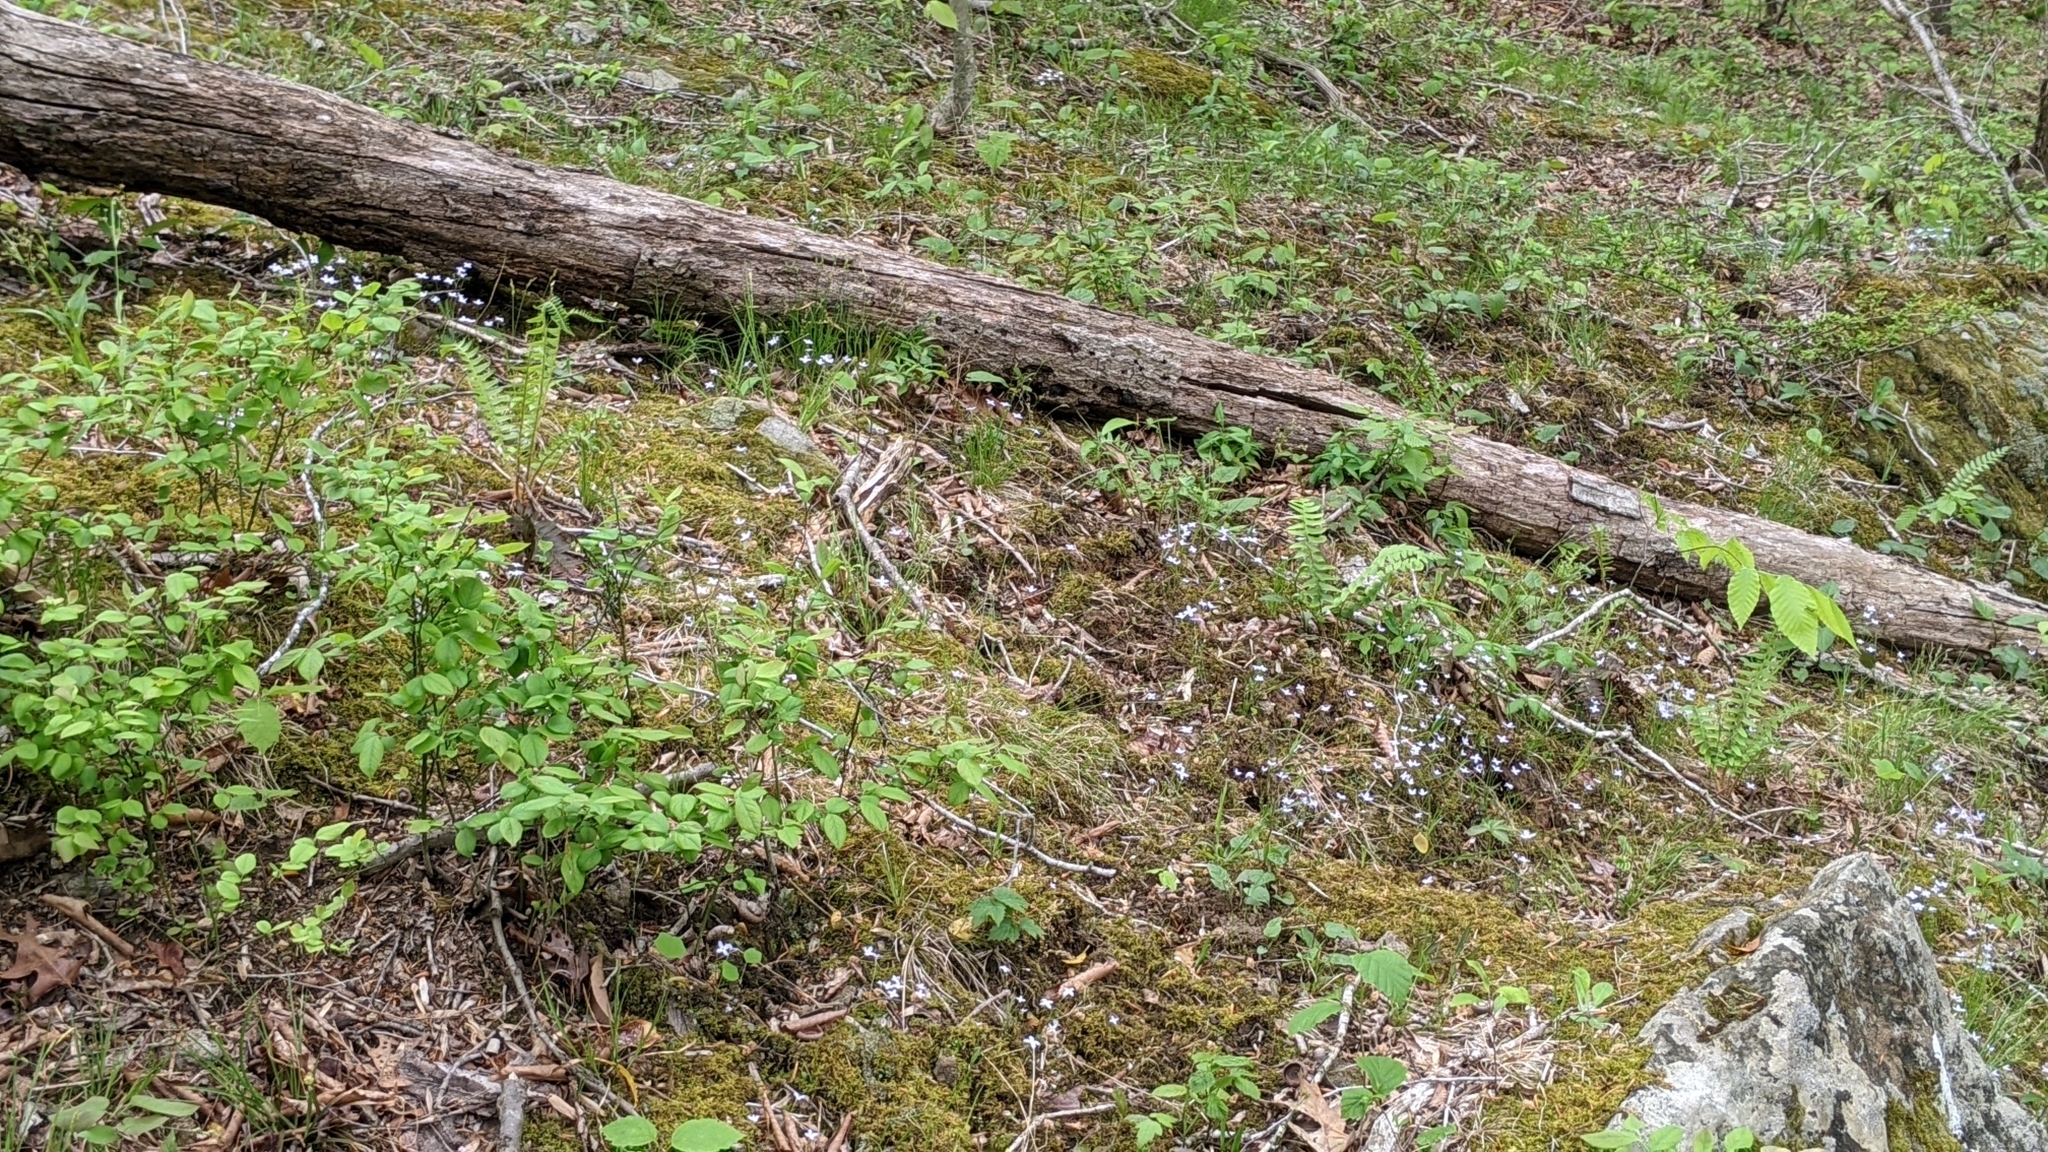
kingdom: Plantae
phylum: Tracheophyta
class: Magnoliopsida
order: Gentianales
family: Rubiaceae
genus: Houstonia
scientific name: Houstonia caerulea
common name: Bluets
